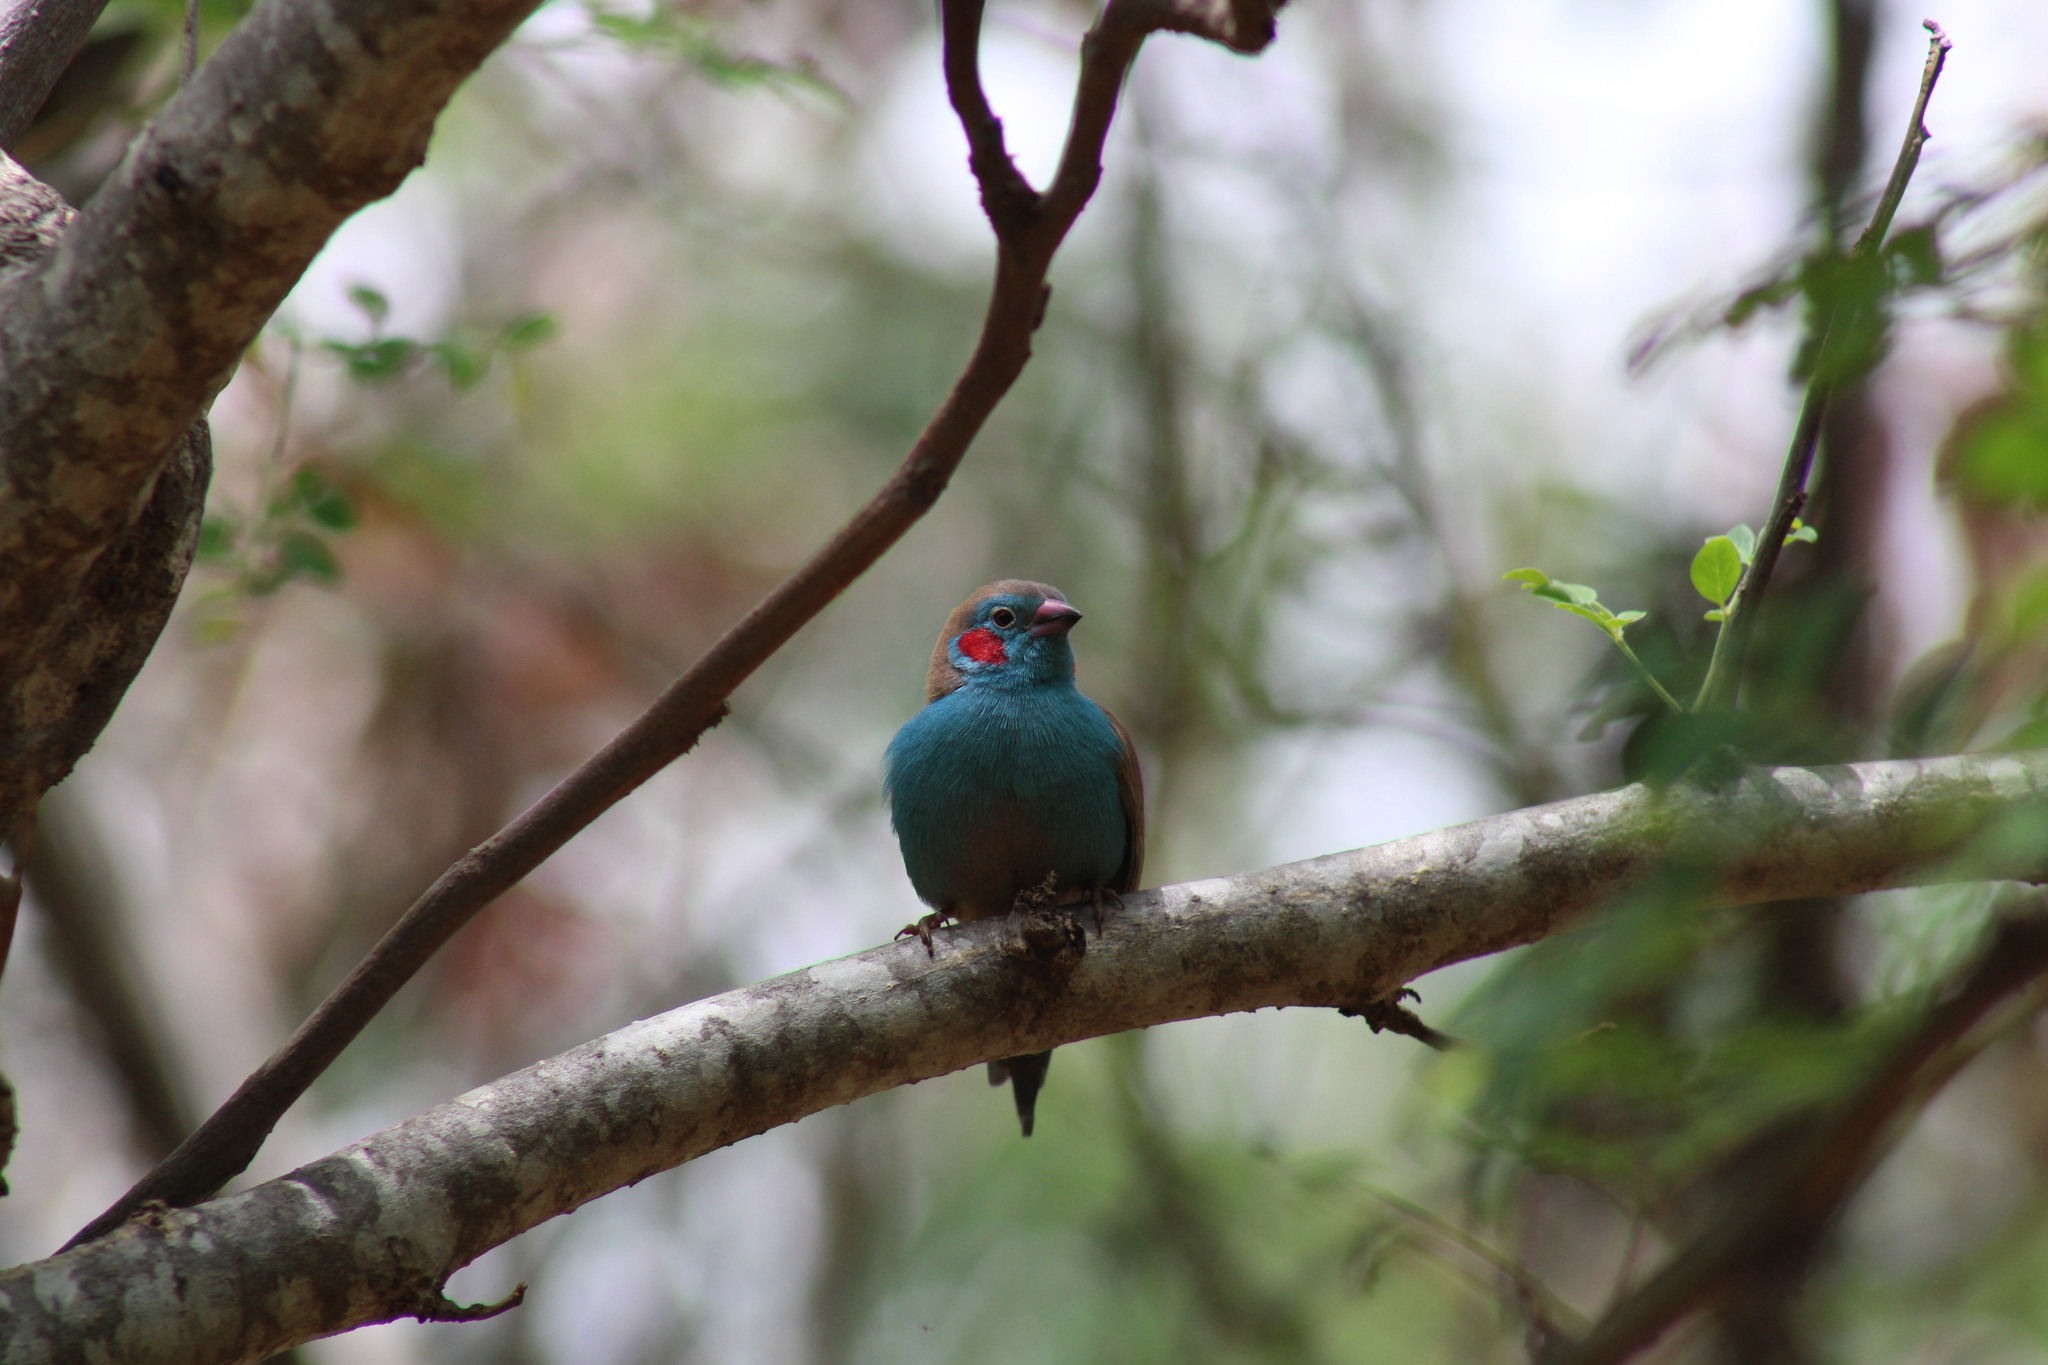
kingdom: Animalia
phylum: Chordata
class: Aves
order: Passeriformes
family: Estrildidae
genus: Uraeginthus
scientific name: Uraeginthus bengalus
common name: Red-cheeked cordon-bleu
